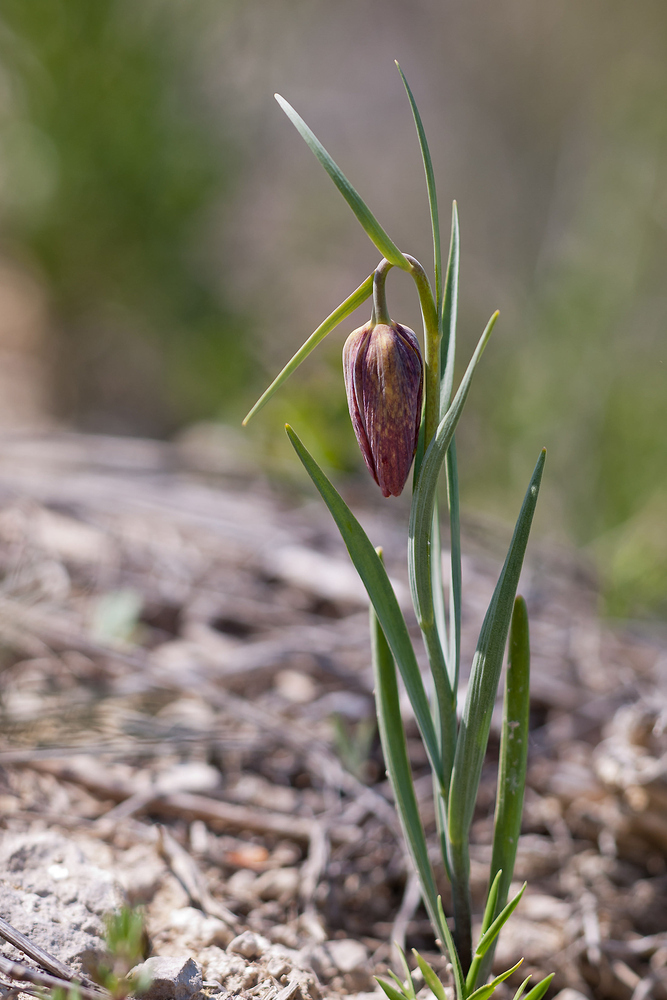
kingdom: Plantae
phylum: Tracheophyta
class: Liliopsida
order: Liliales
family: Liliaceae
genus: Fritillaria
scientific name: Fritillaria lusitanica
